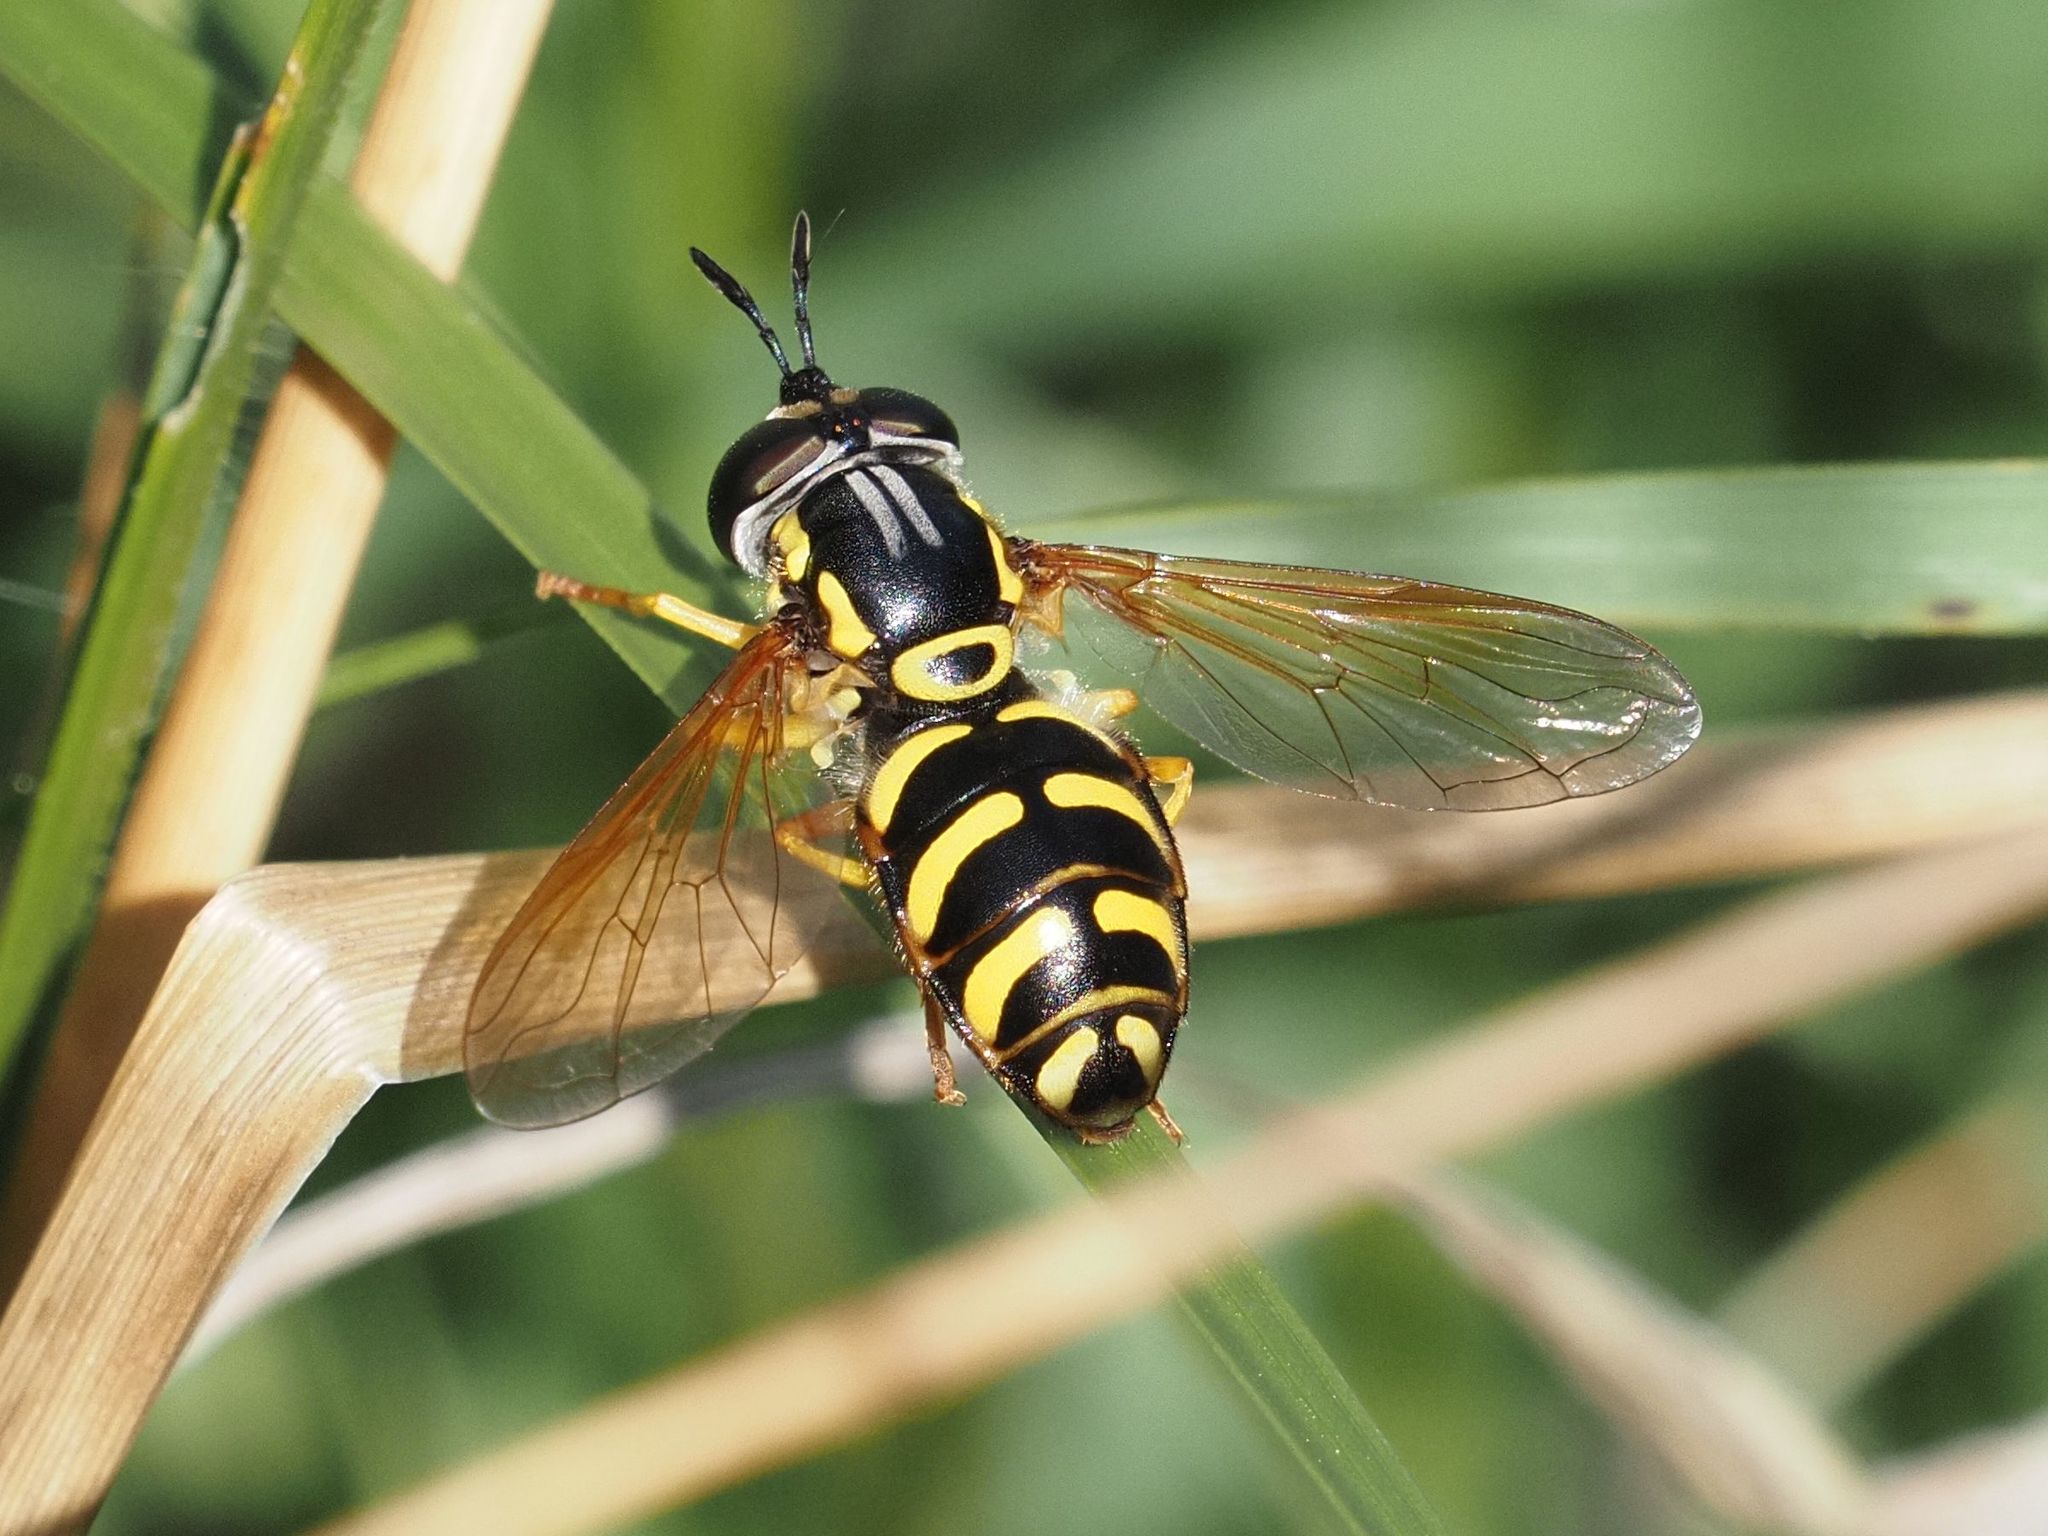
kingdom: Animalia
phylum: Arthropoda
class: Insecta
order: Diptera
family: Syrphidae
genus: Chrysotoxum
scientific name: Chrysotoxum elegans
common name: Zipperback
